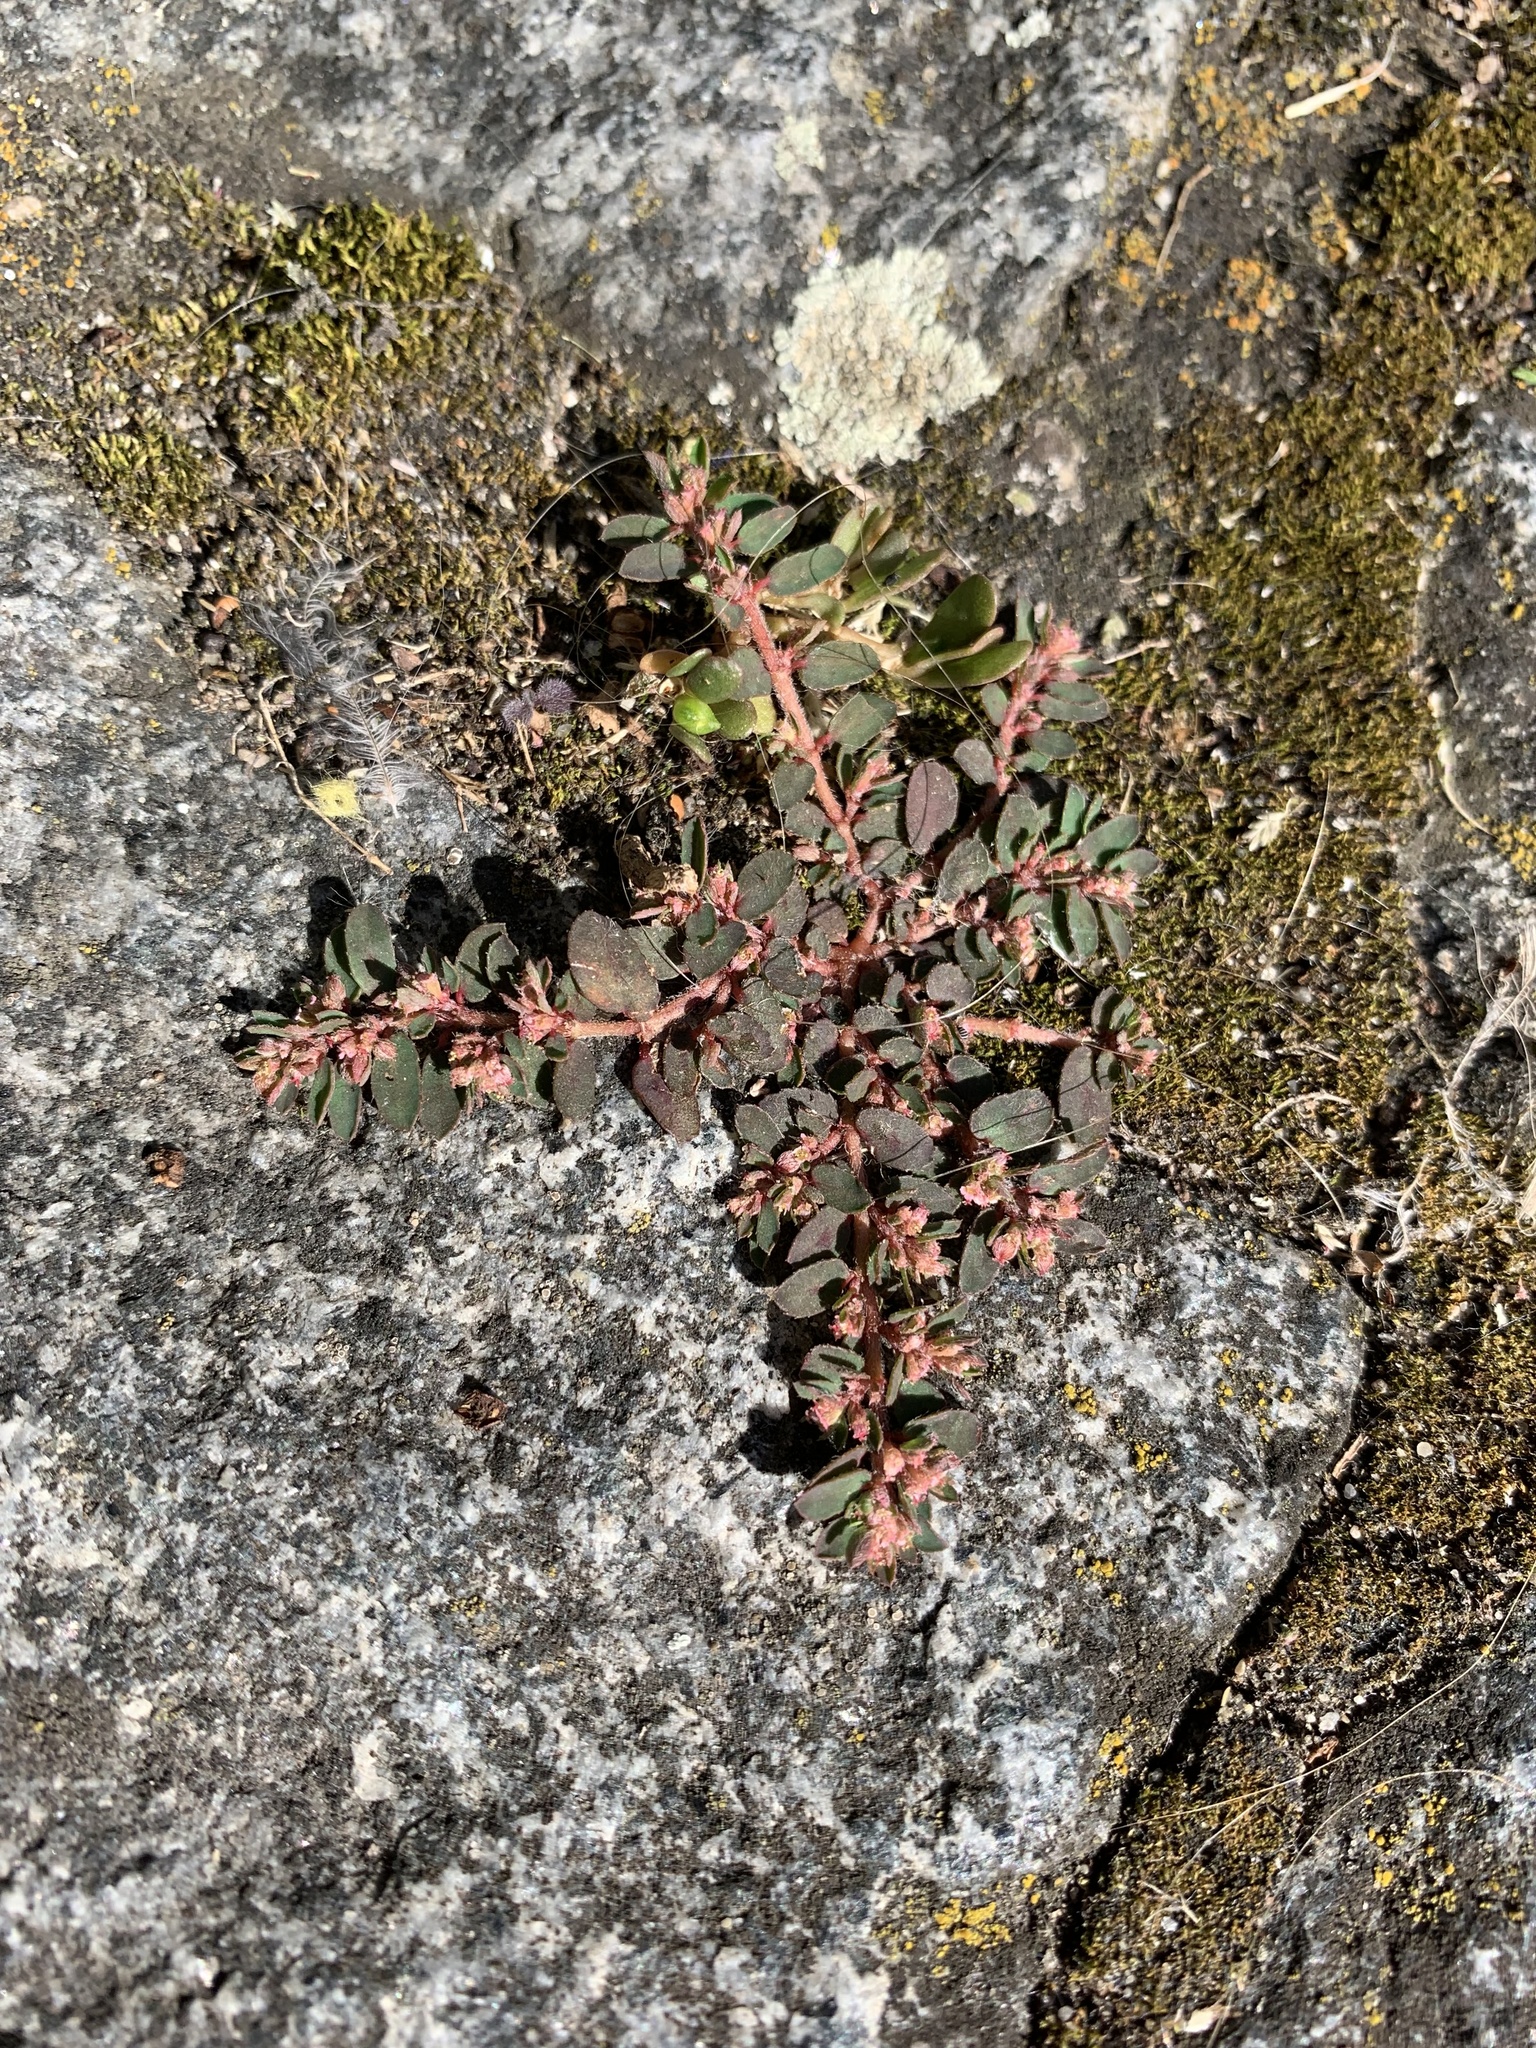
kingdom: Plantae
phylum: Tracheophyta
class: Magnoliopsida
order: Malpighiales
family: Euphorbiaceae
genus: Euphorbia
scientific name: Euphorbia maculata
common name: Spotted spurge
